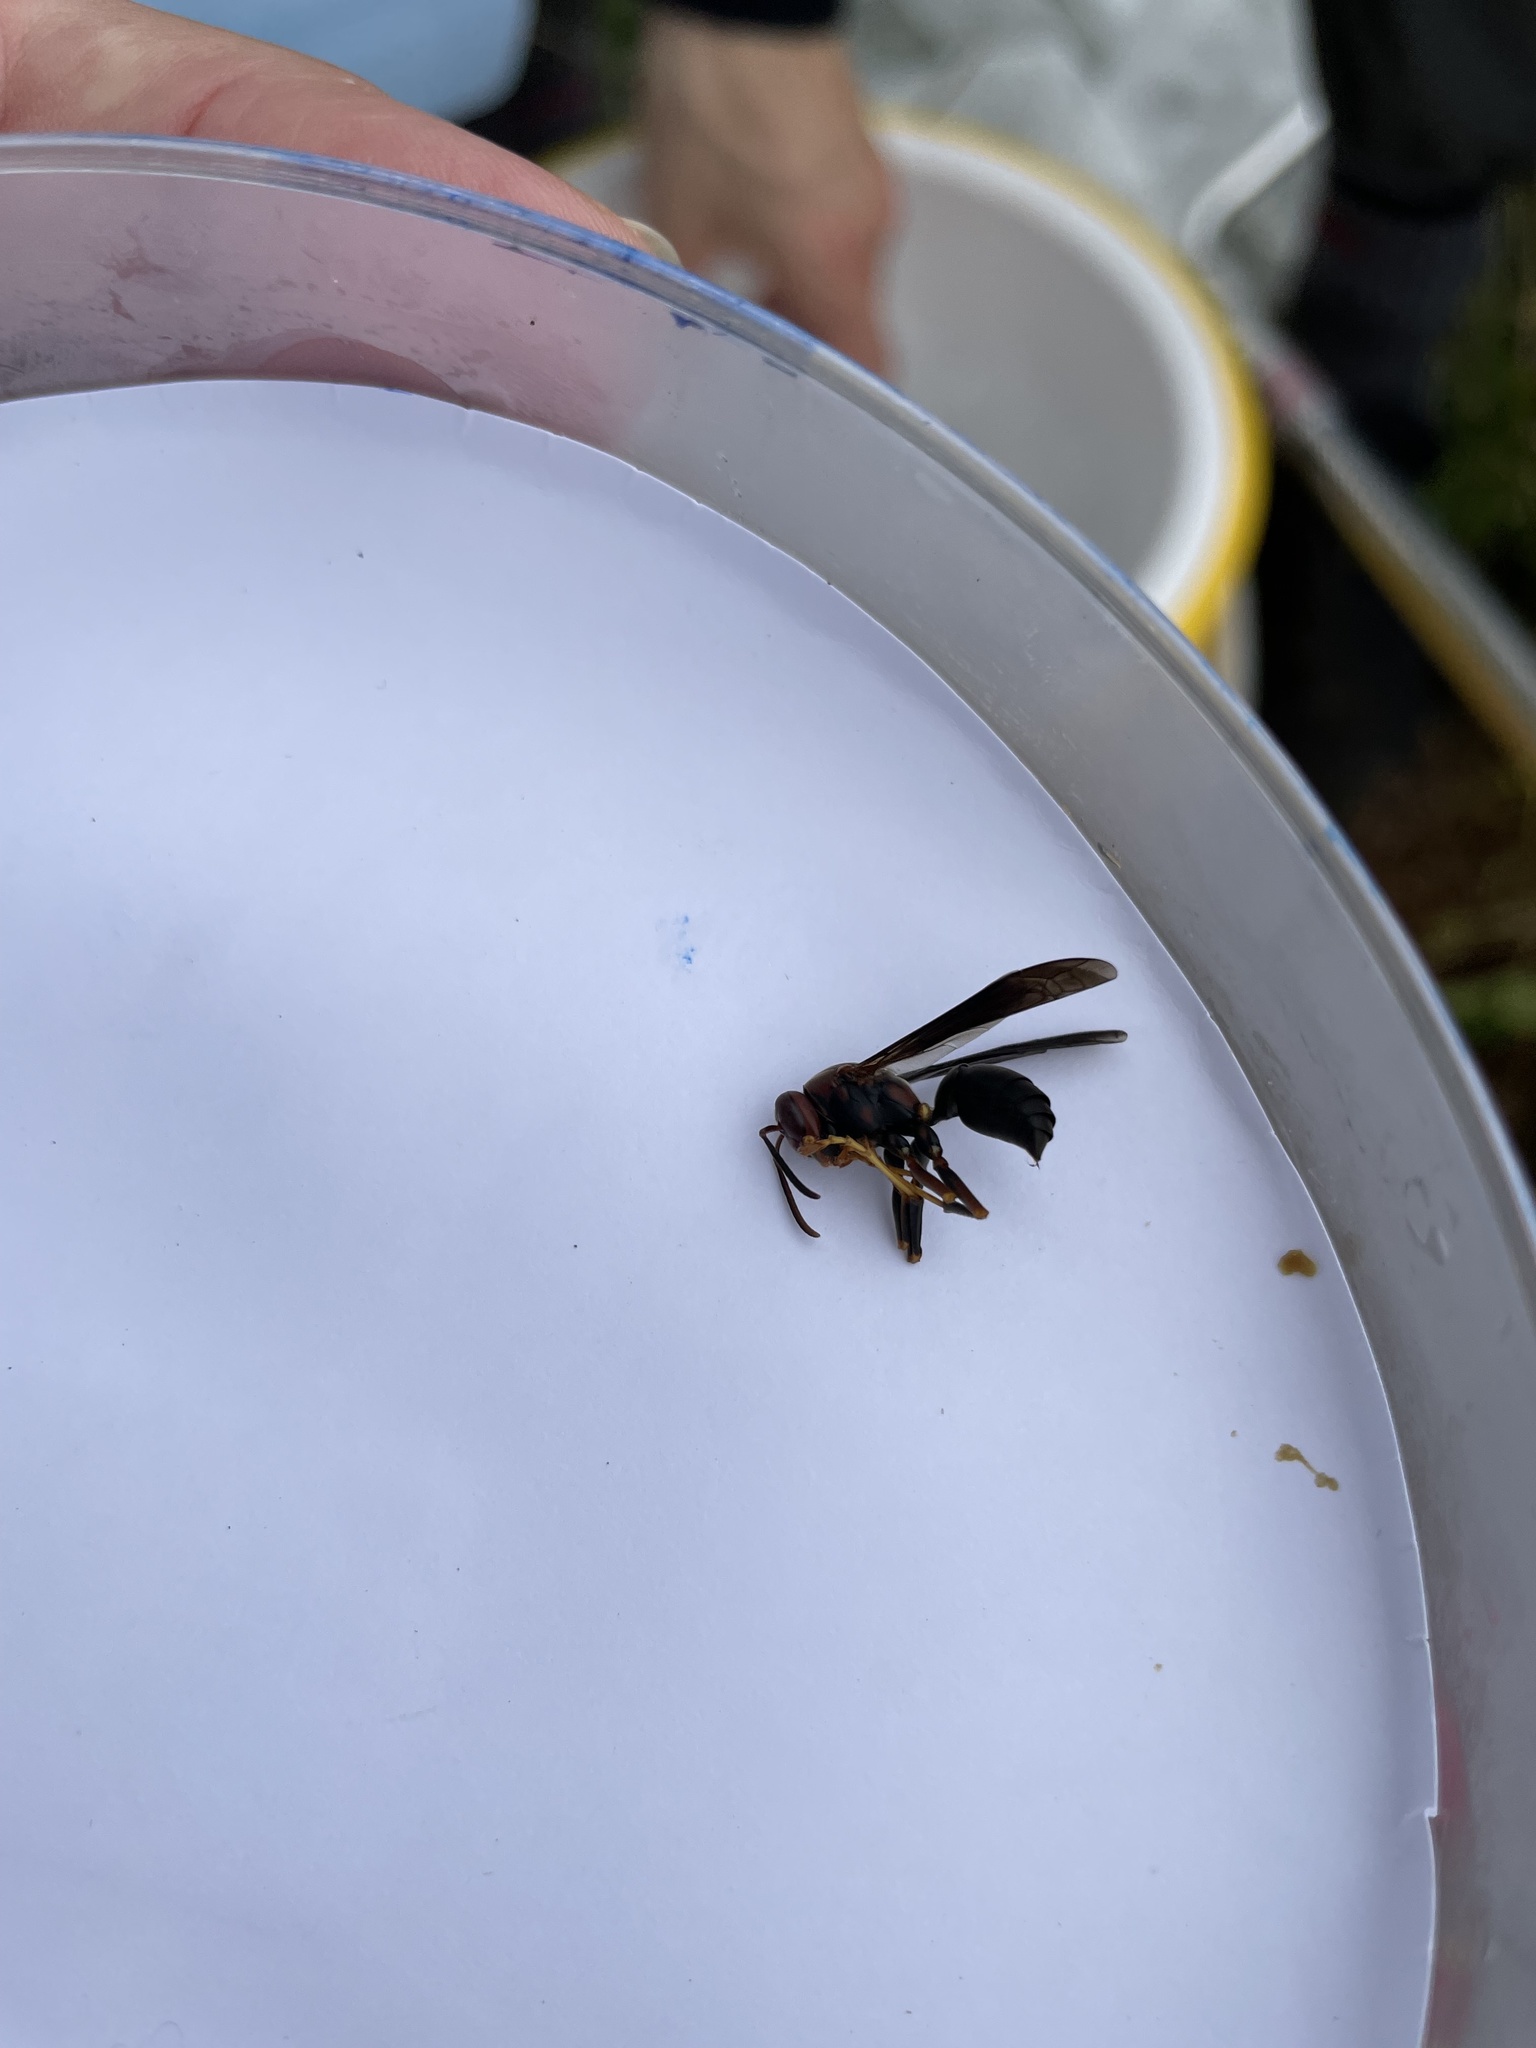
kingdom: Animalia
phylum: Arthropoda
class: Insecta
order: Hymenoptera
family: Eumenidae
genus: Polistes
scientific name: Polistes metricus
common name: Metric paper wasp
